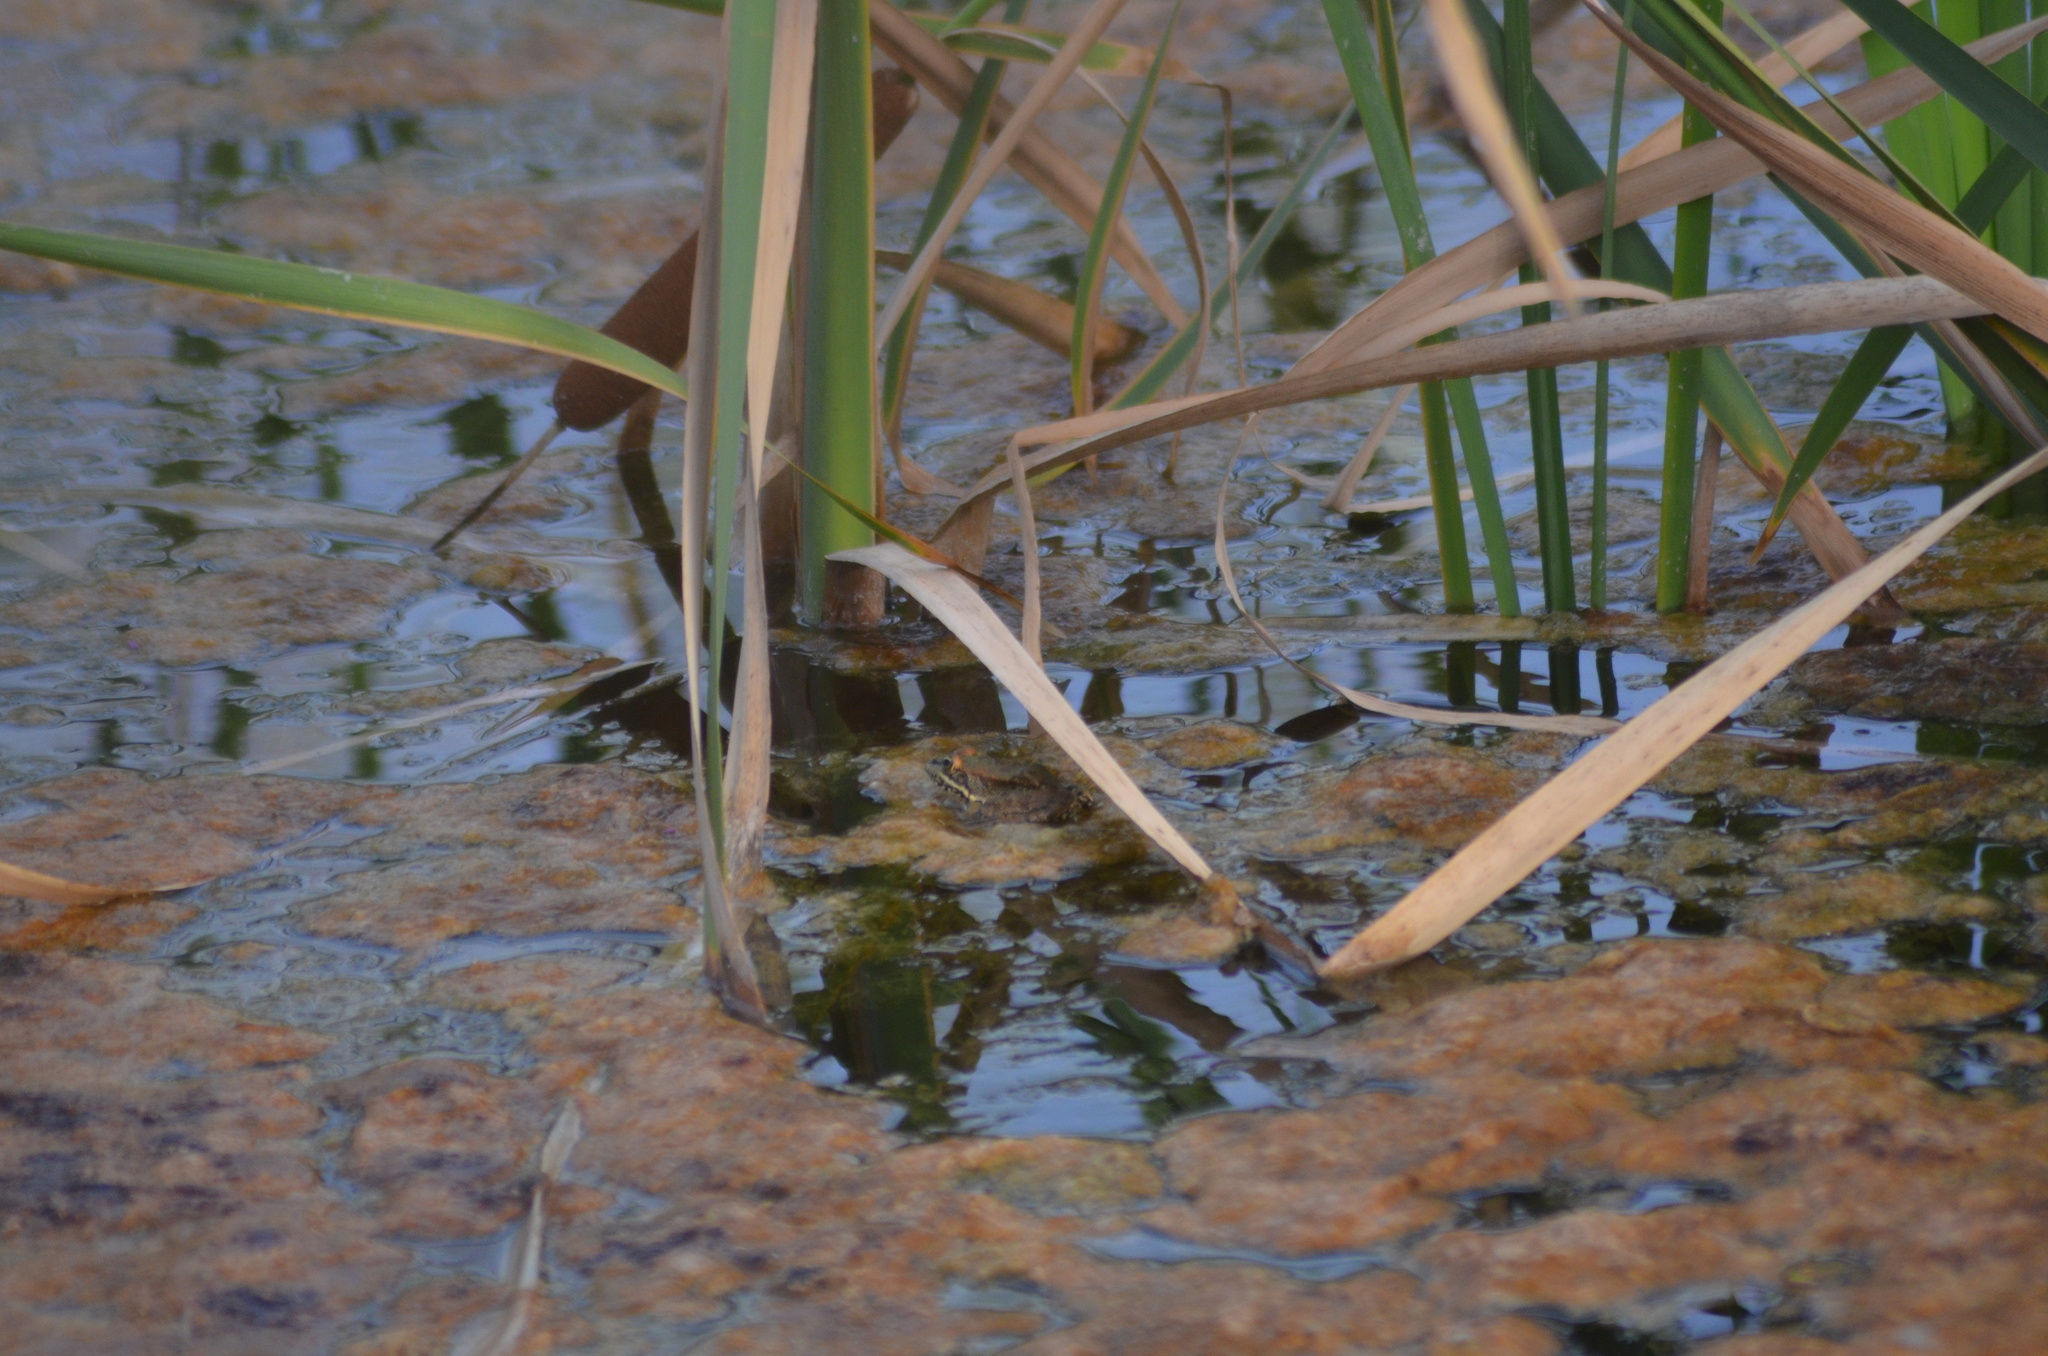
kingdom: Animalia
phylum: Chordata
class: Amphibia
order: Anura
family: Ranidae
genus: Pelophylax
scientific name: Pelophylax
